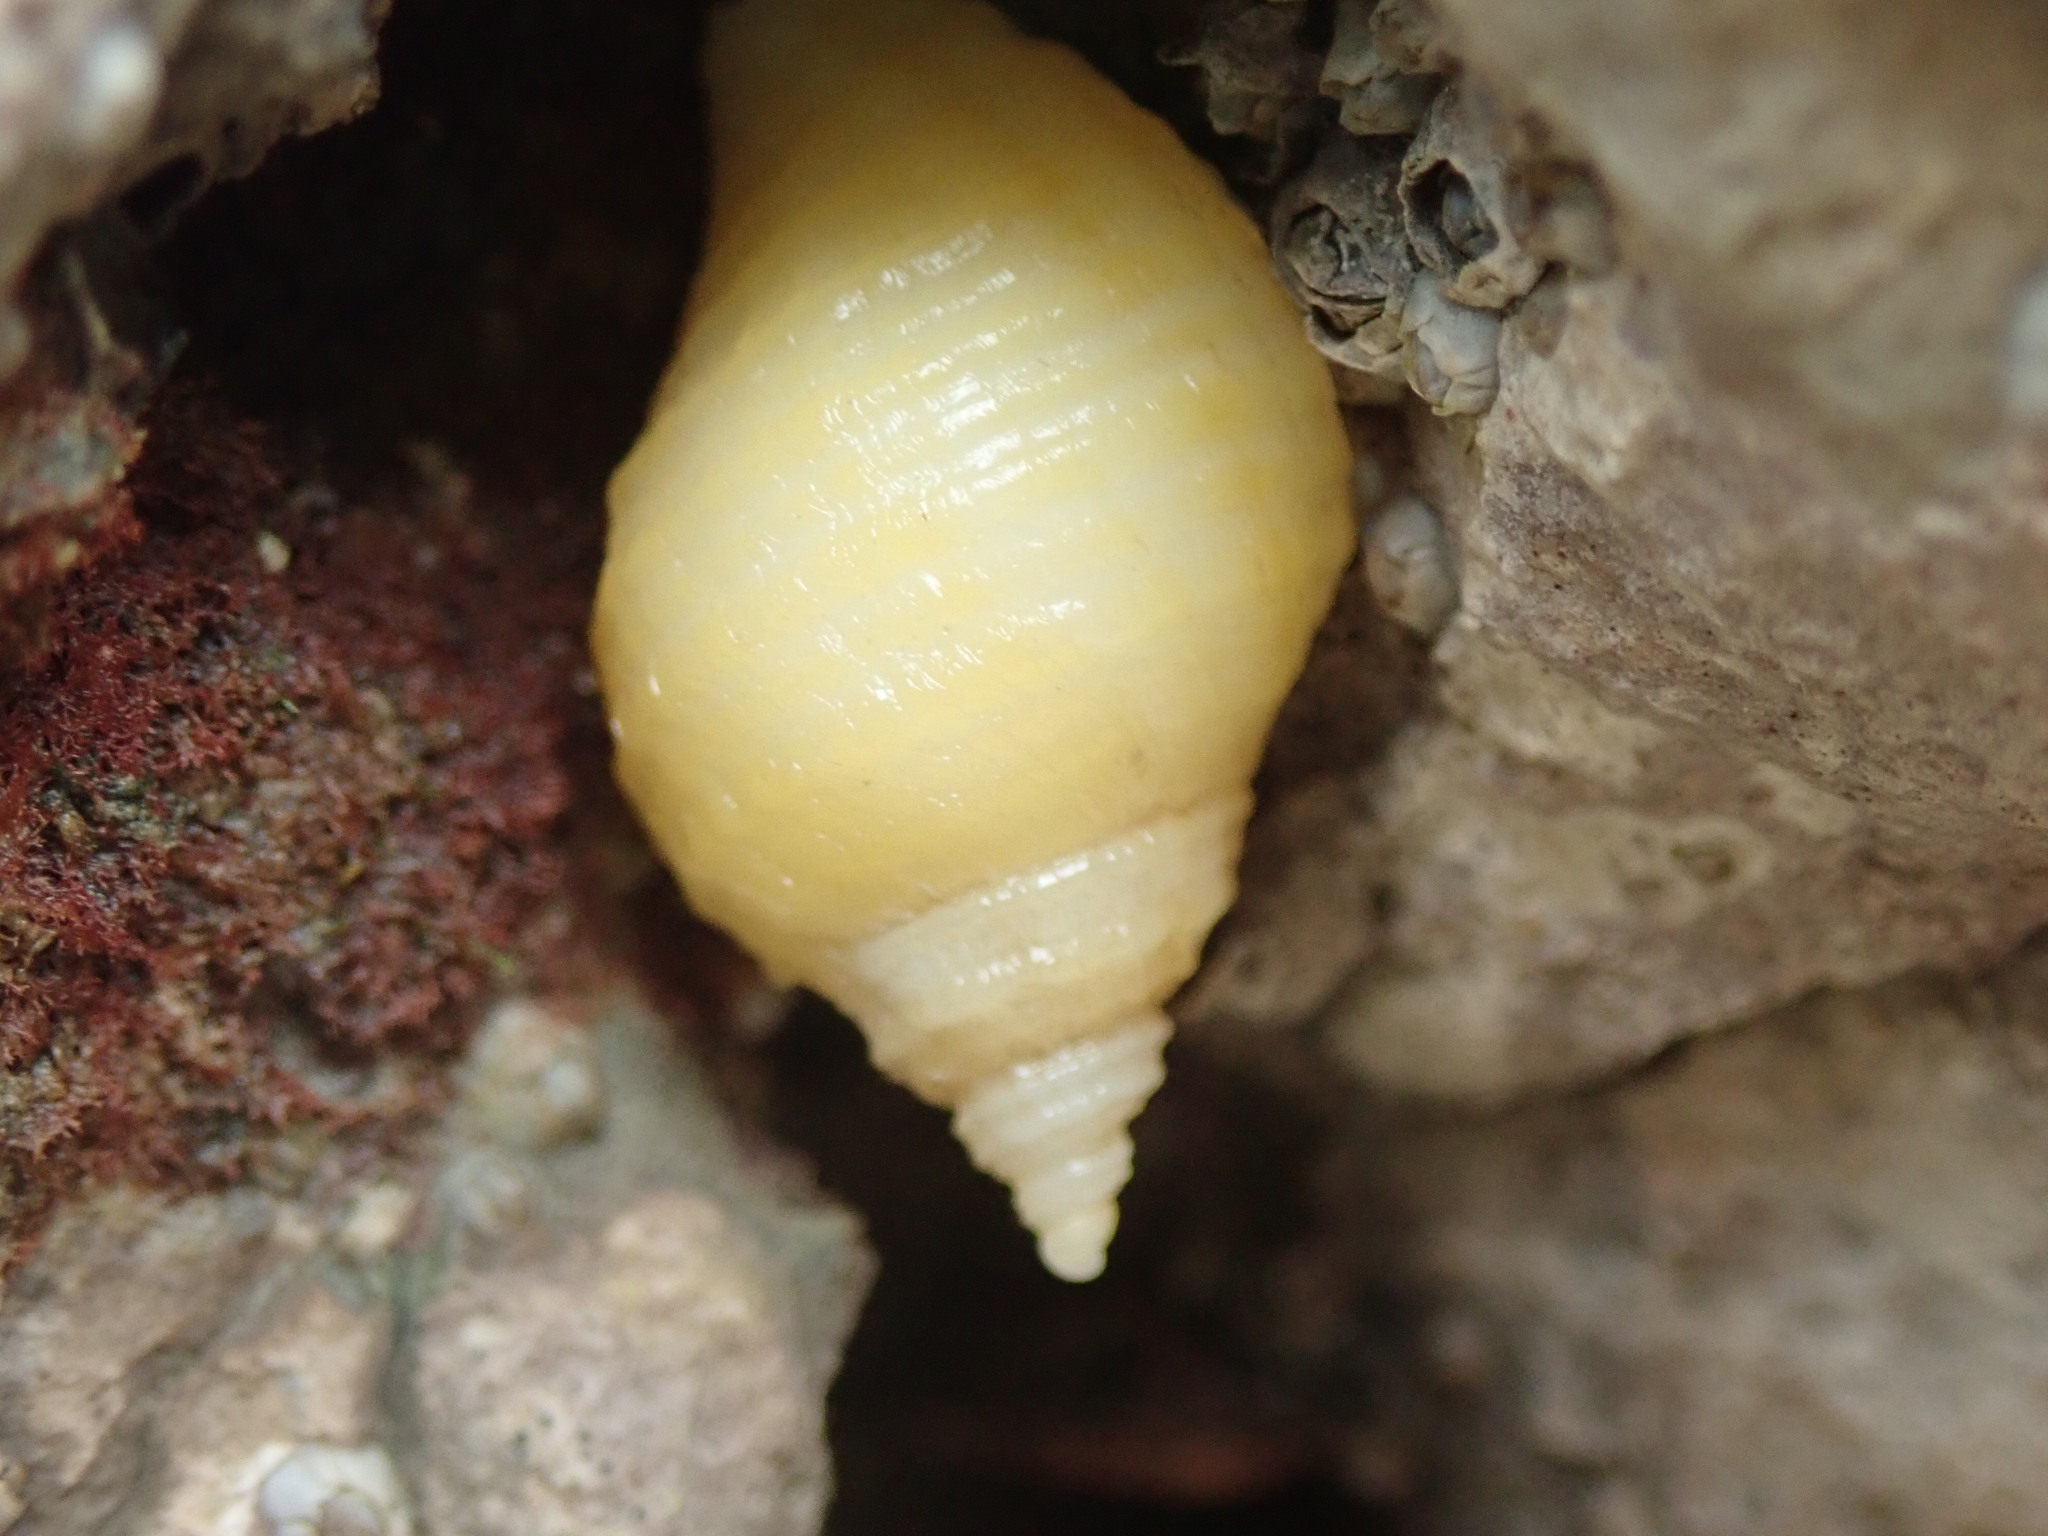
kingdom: Animalia
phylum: Mollusca
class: Gastropoda
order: Neogastropoda
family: Muricidae
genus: Nucella
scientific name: Nucella lapillus
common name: Dog whelk
